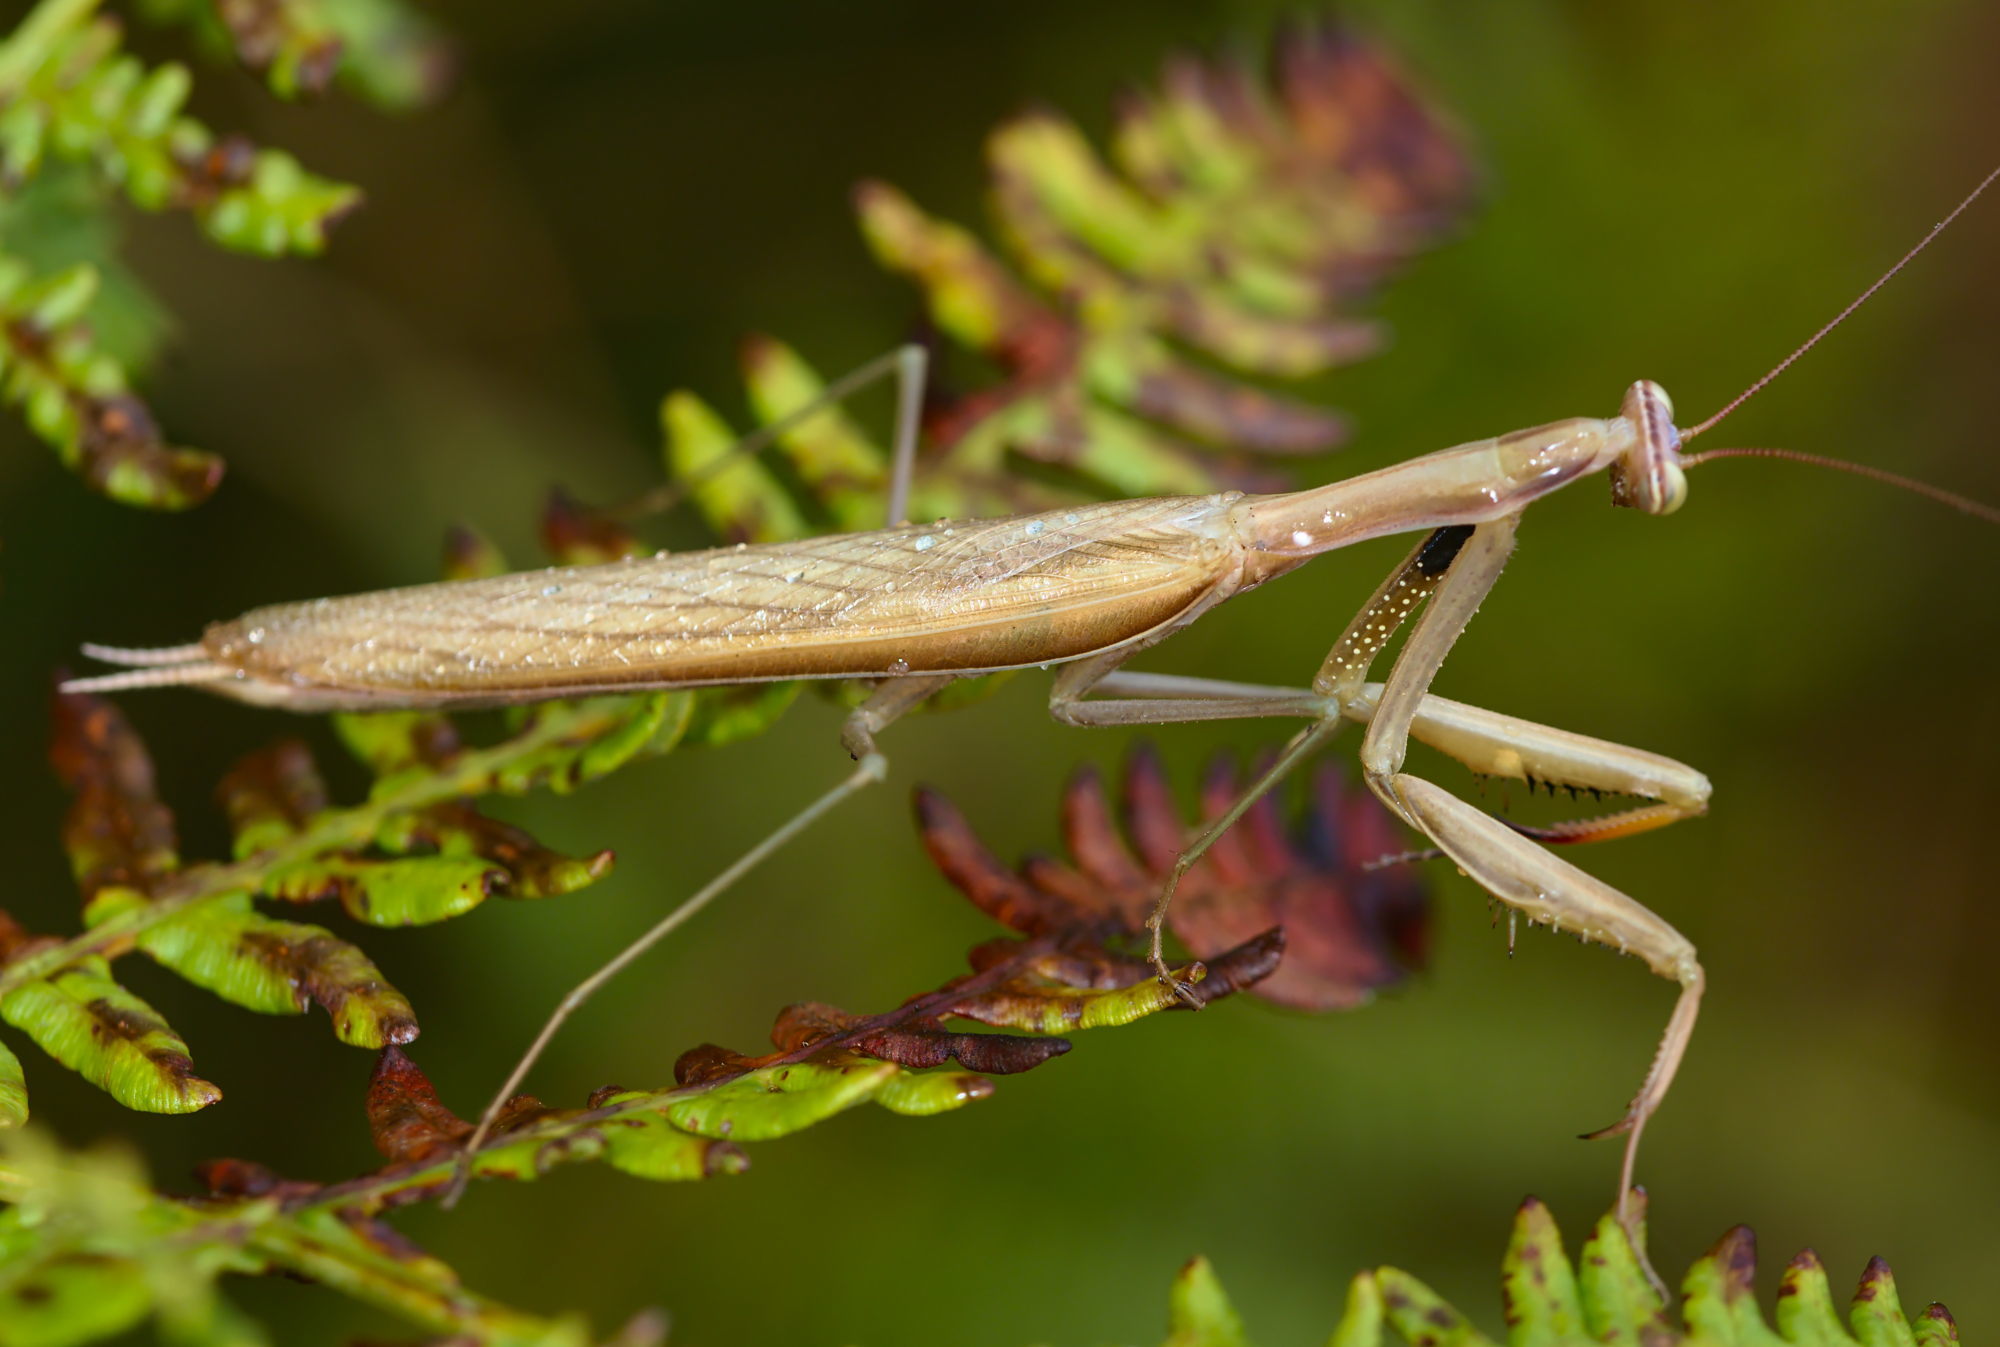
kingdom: Animalia
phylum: Arthropoda
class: Insecta
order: Mantodea
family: Mantidae
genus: Mantis
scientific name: Mantis religiosa
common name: Praying mantis
